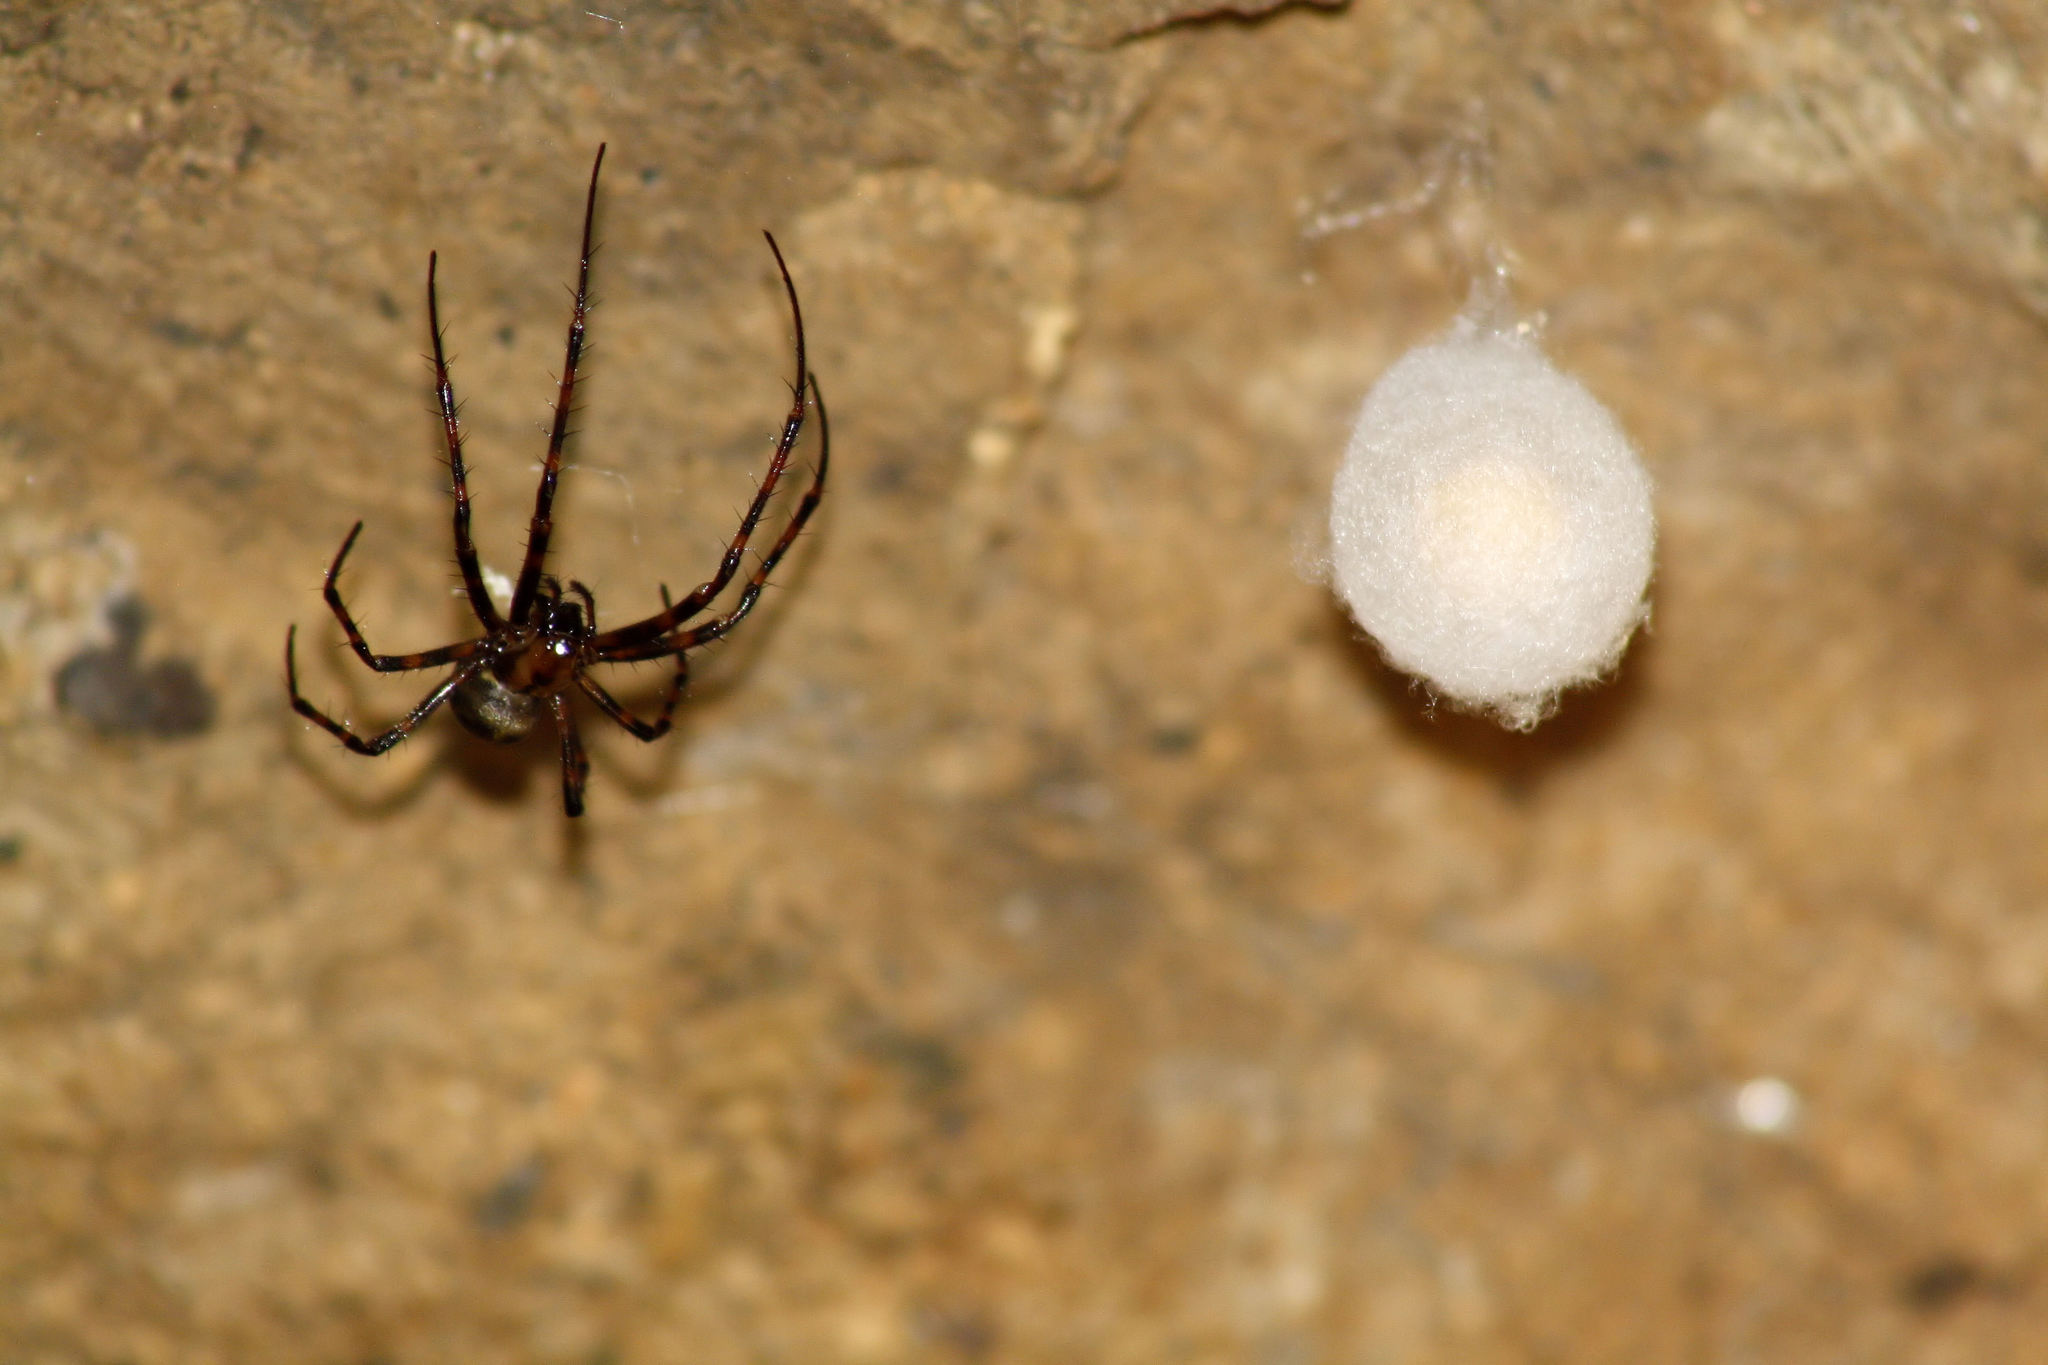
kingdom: Animalia
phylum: Arthropoda
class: Arachnida
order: Araneae
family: Tetragnathidae
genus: Meta
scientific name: Meta menardi
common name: Cave spider
